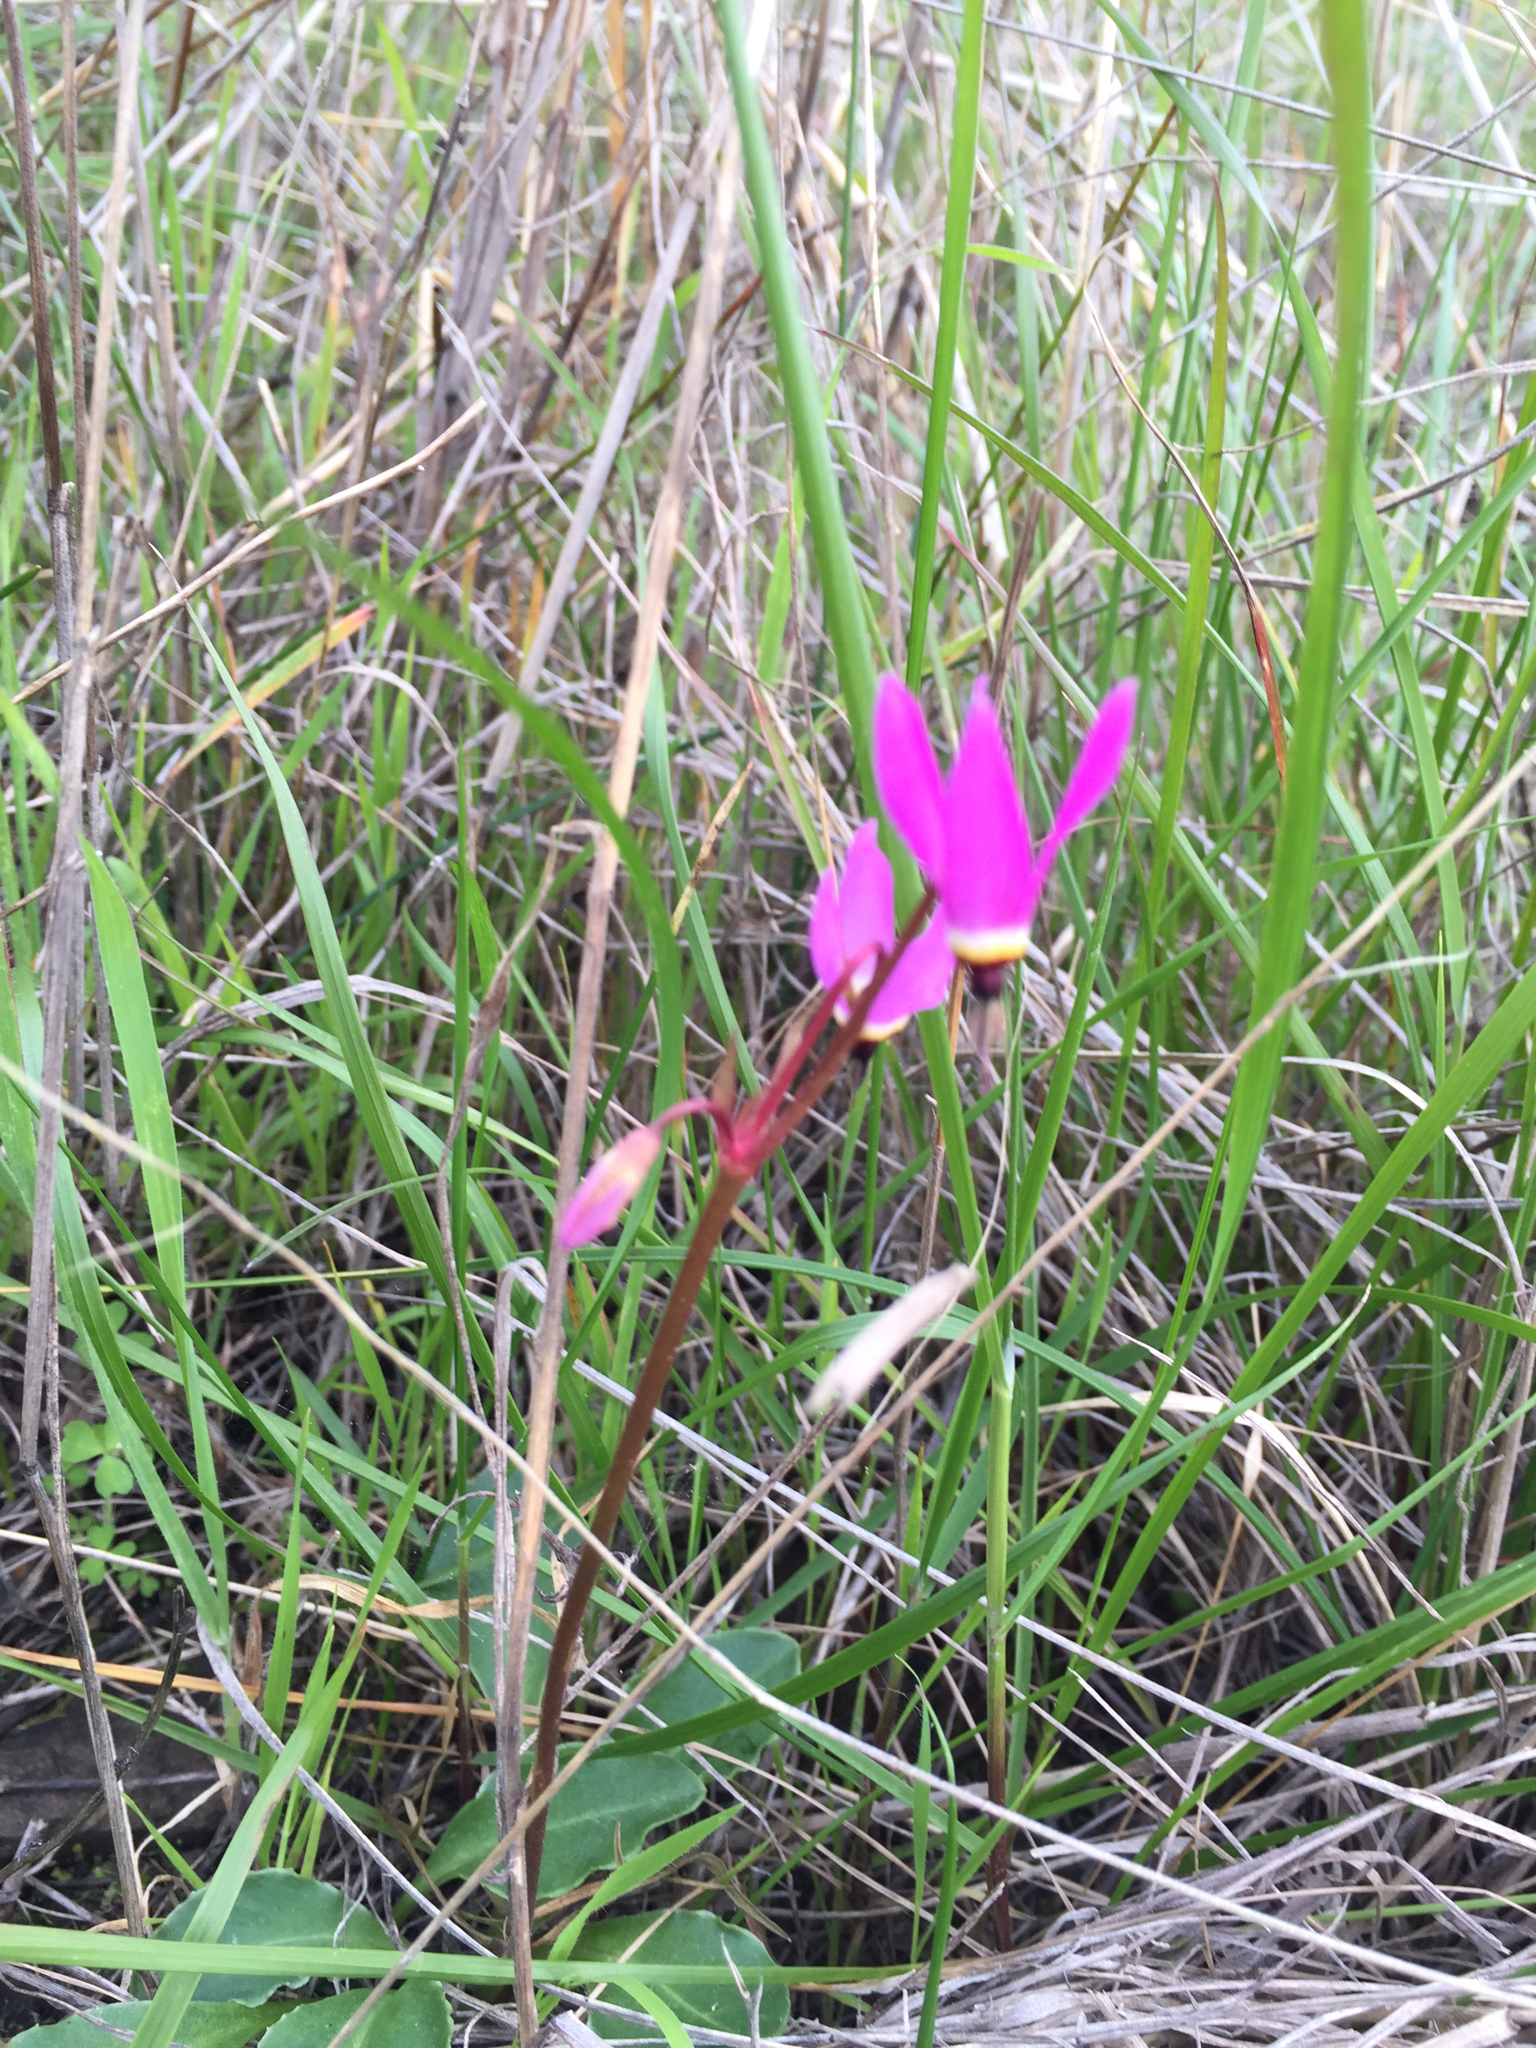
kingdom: Plantae
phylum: Tracheophyta
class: Magnoliopsida
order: Ericales
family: Primulaceae
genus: Dodecatheon
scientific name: Dodecatheon hendersonii
